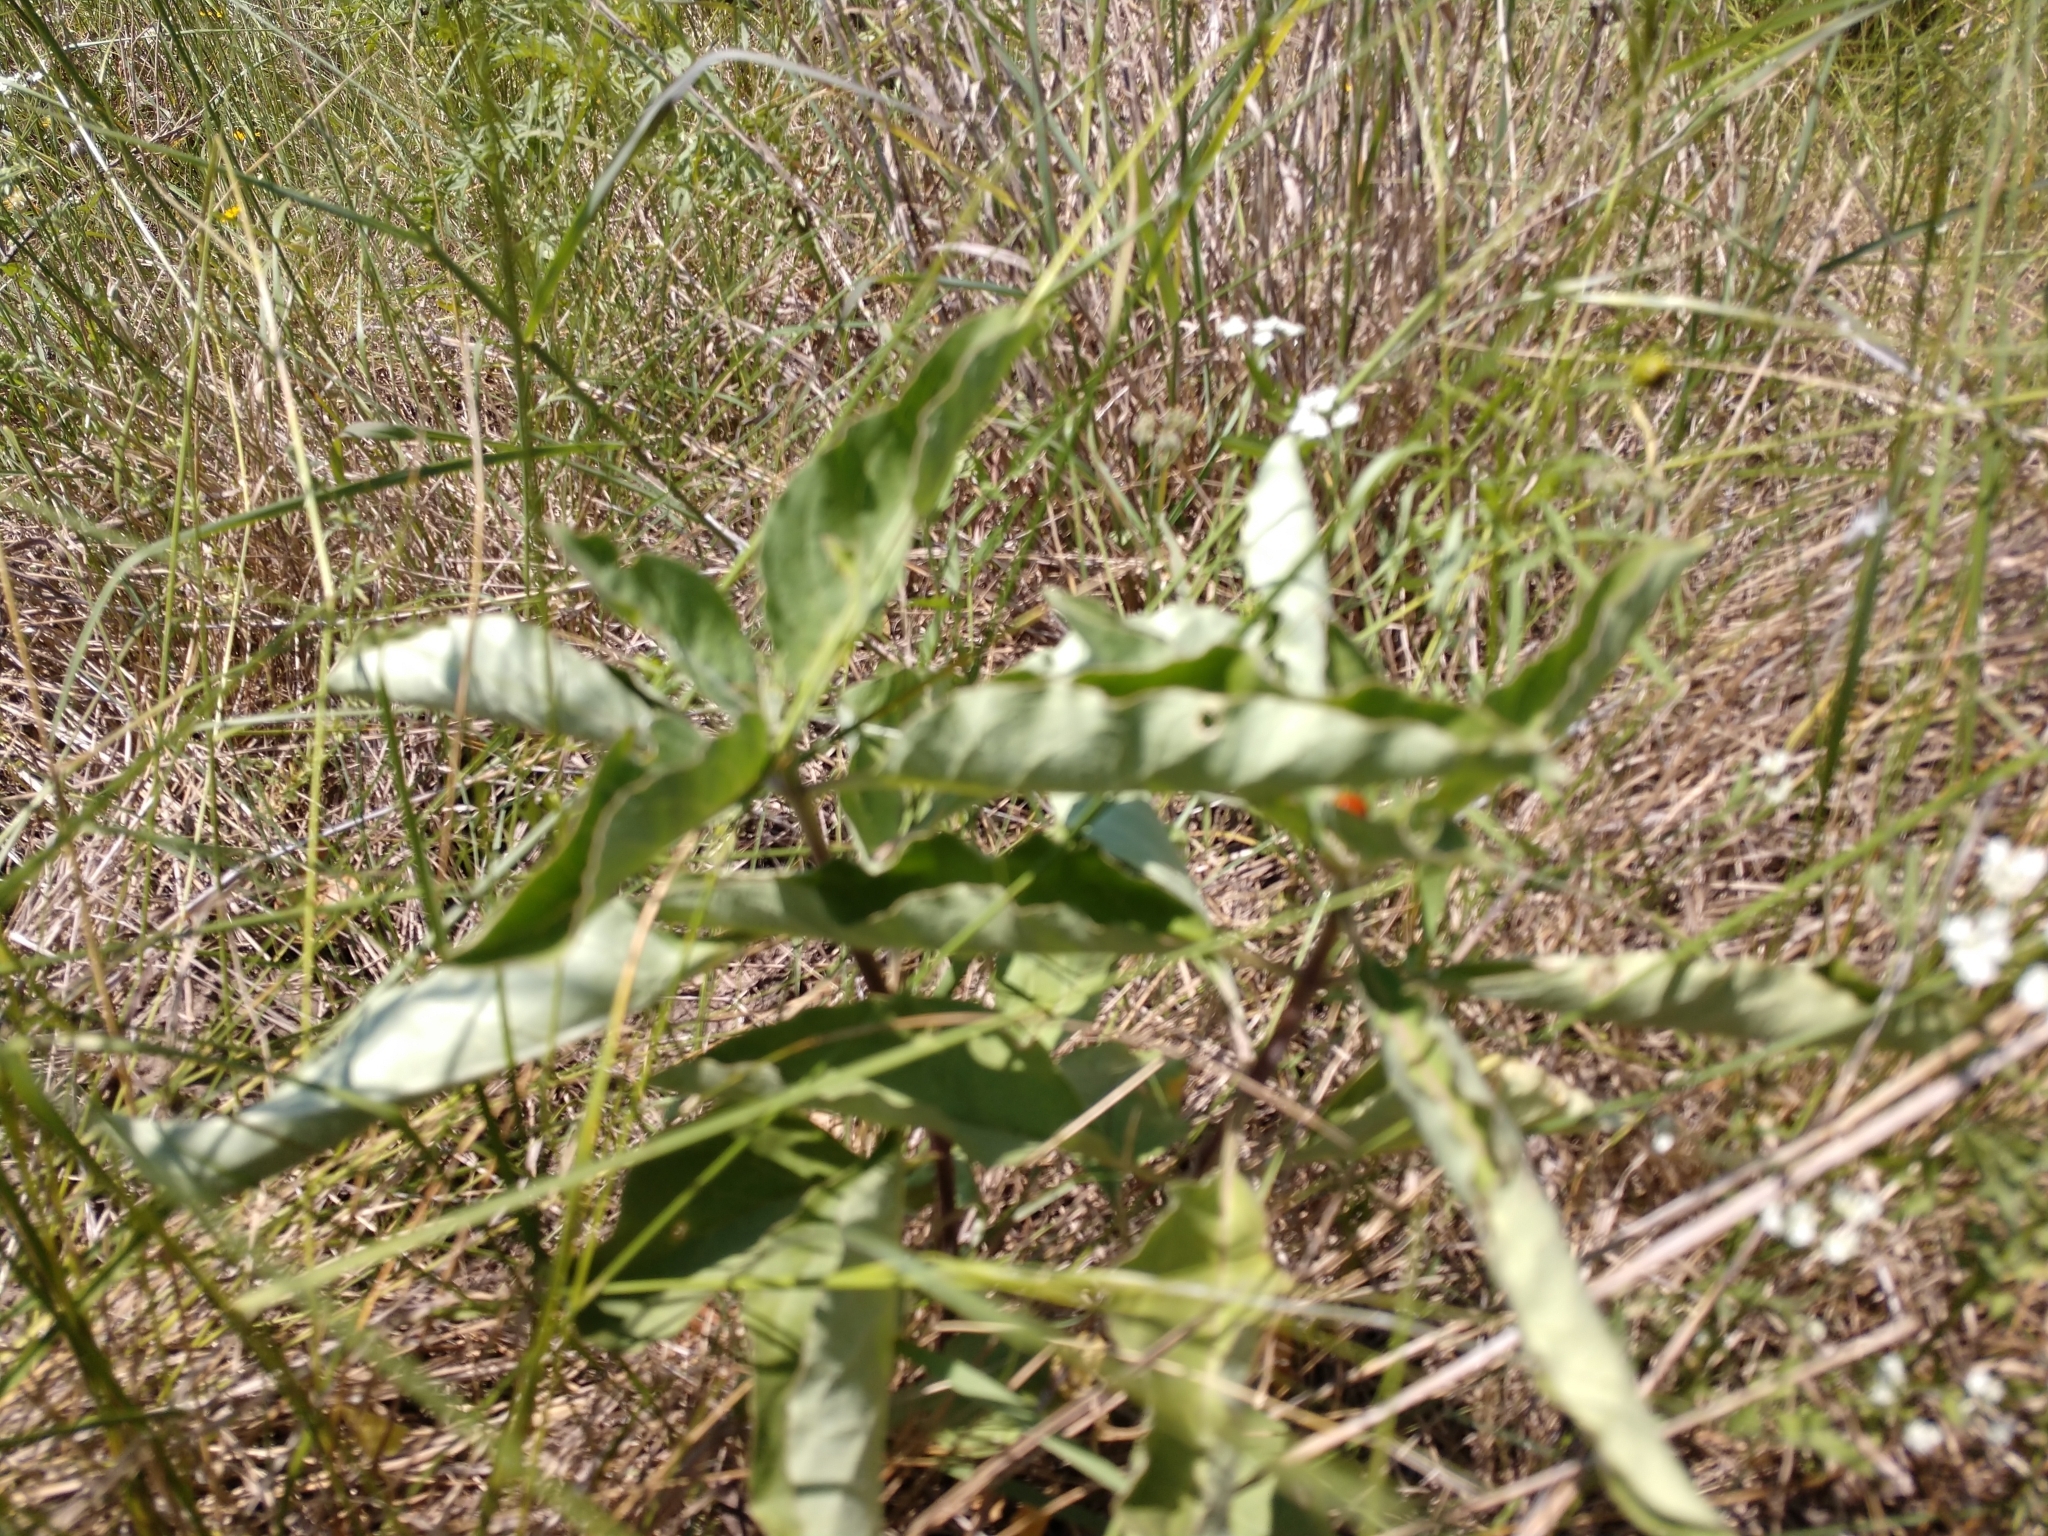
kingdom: Plantae
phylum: Tracheophyta
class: Magnoliopsida
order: Gentianales
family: Apocynaceae
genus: Asclepias
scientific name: Asclepias oenotheroides
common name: Zizotes milkweed
